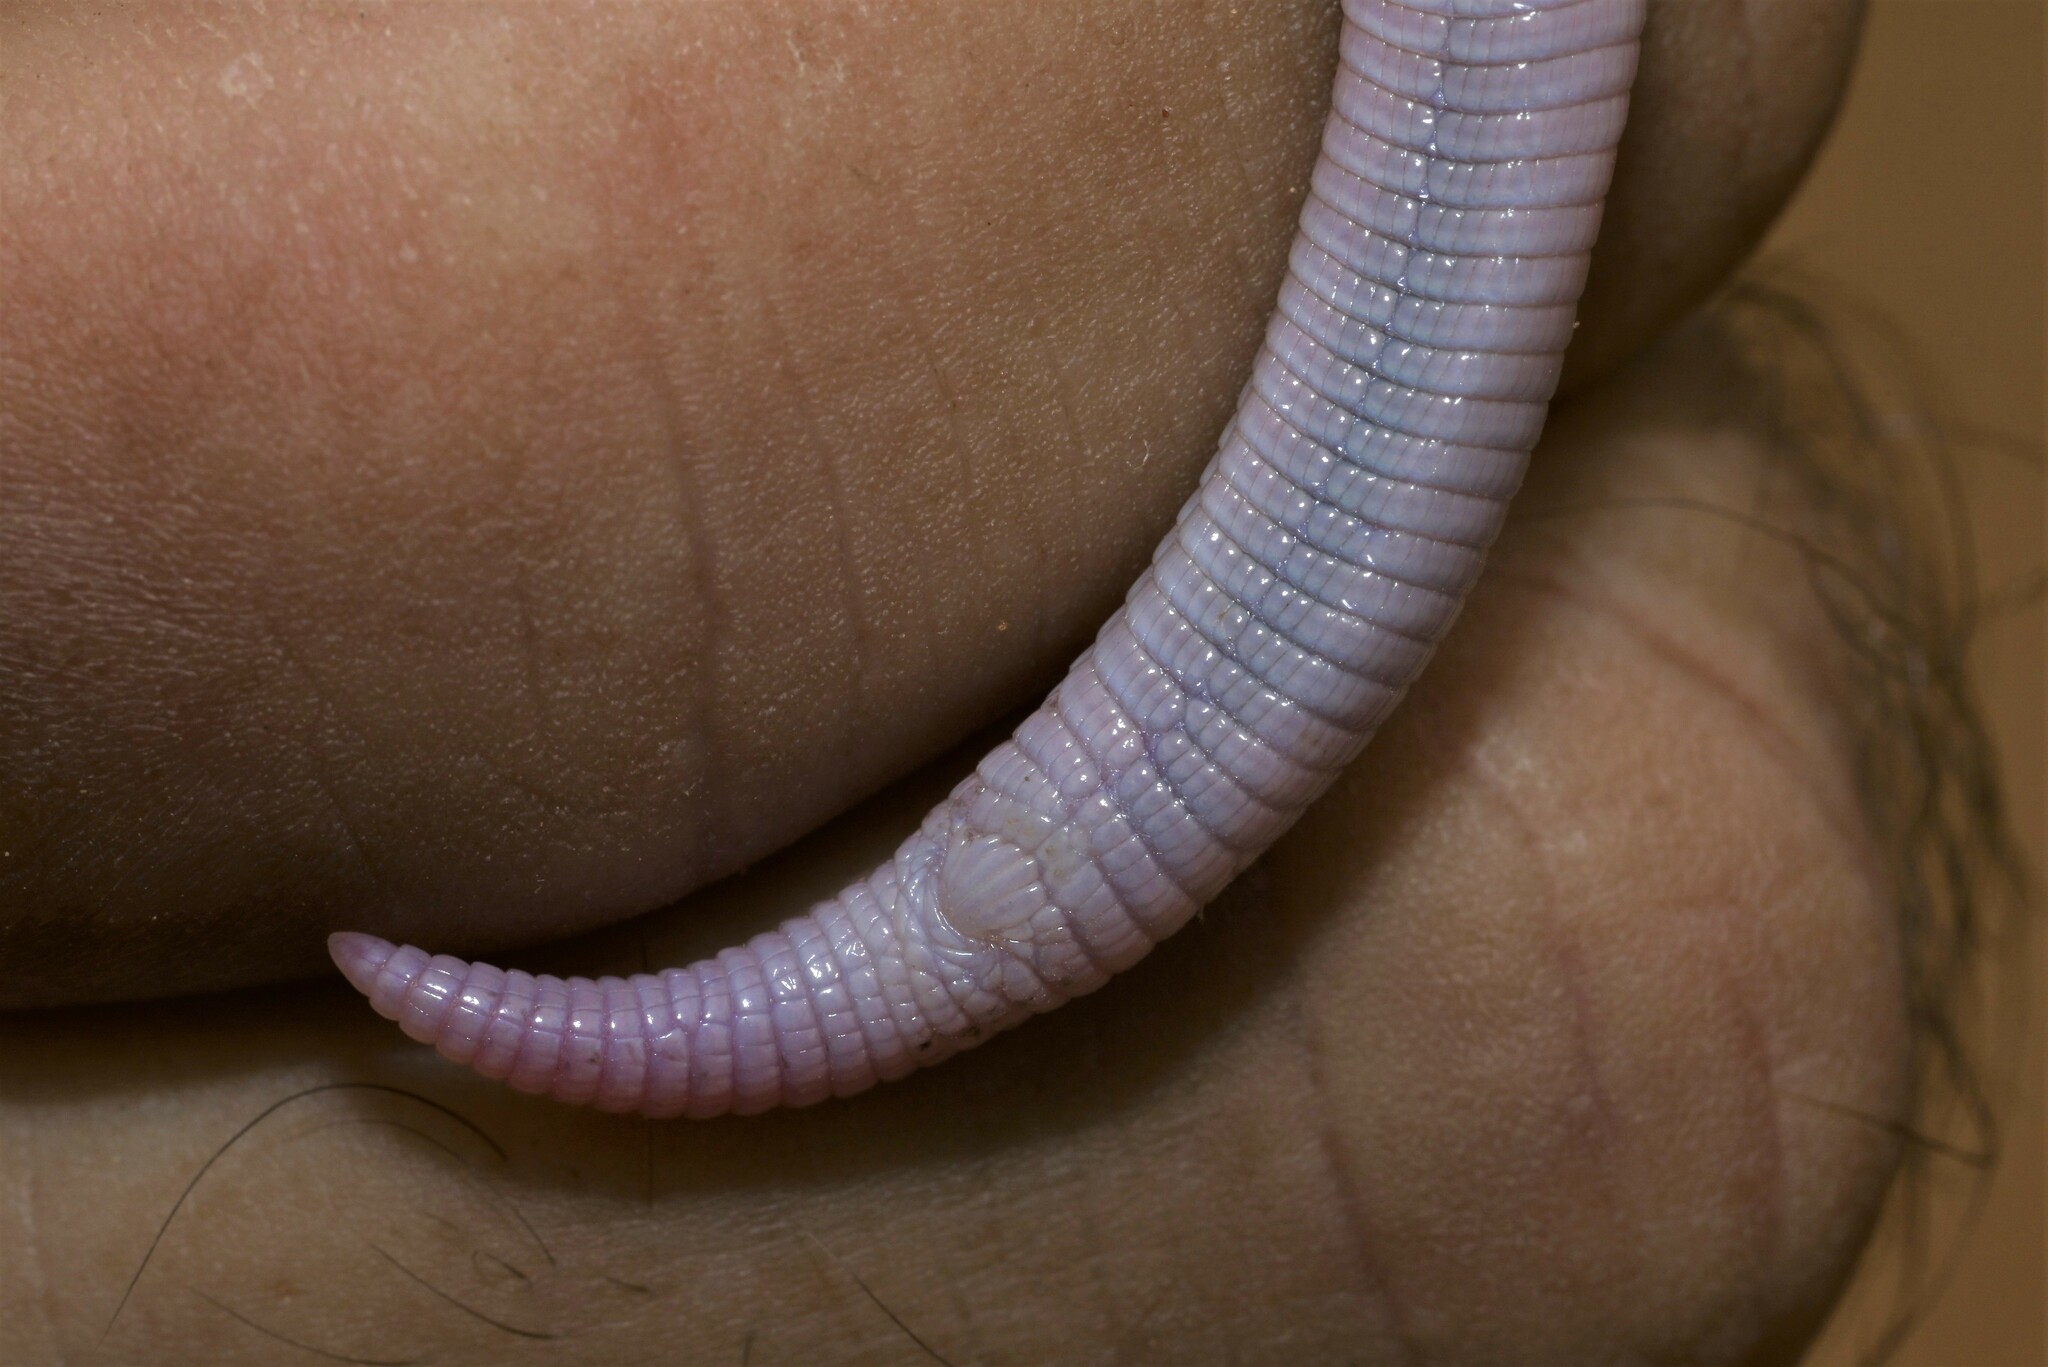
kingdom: Animalia
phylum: Chordata
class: Squamata
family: Trogonophidae
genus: Diplometopon
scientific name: Diplometopon zarudnyi
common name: Zarudnyi's worm lizard
